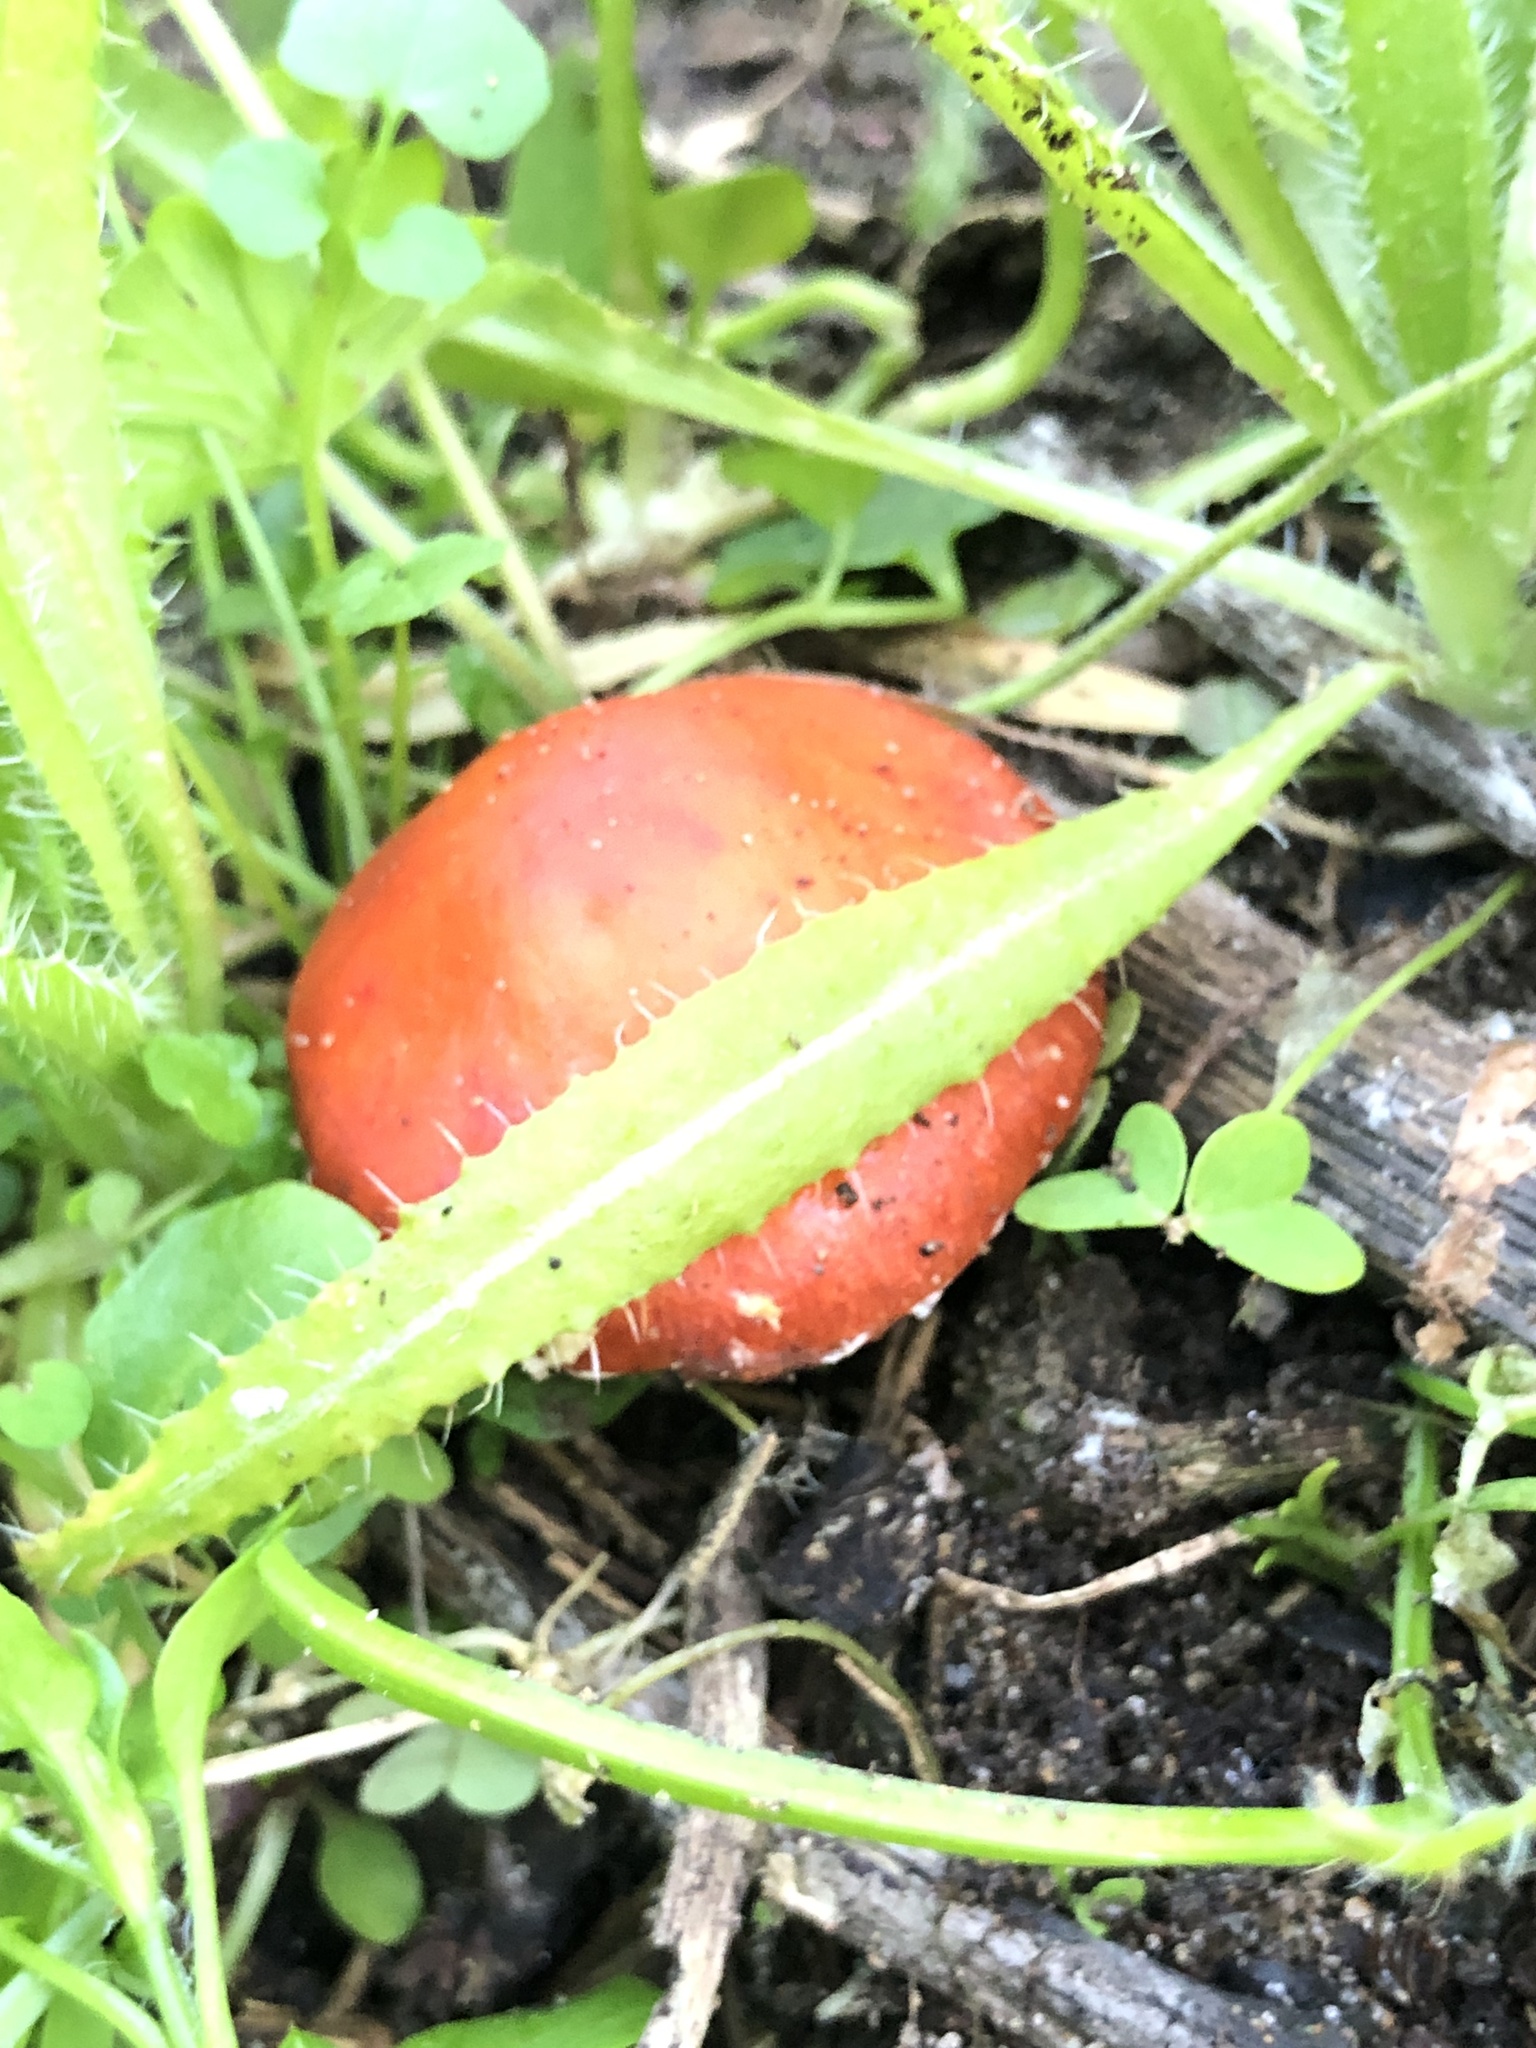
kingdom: Fungi
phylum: Basidiomycota
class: Agaricomycetes
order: Agaricales
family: Strophariaceae
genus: Leratiomyces
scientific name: Leratiomyces ceres
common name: Redlead roundhead
